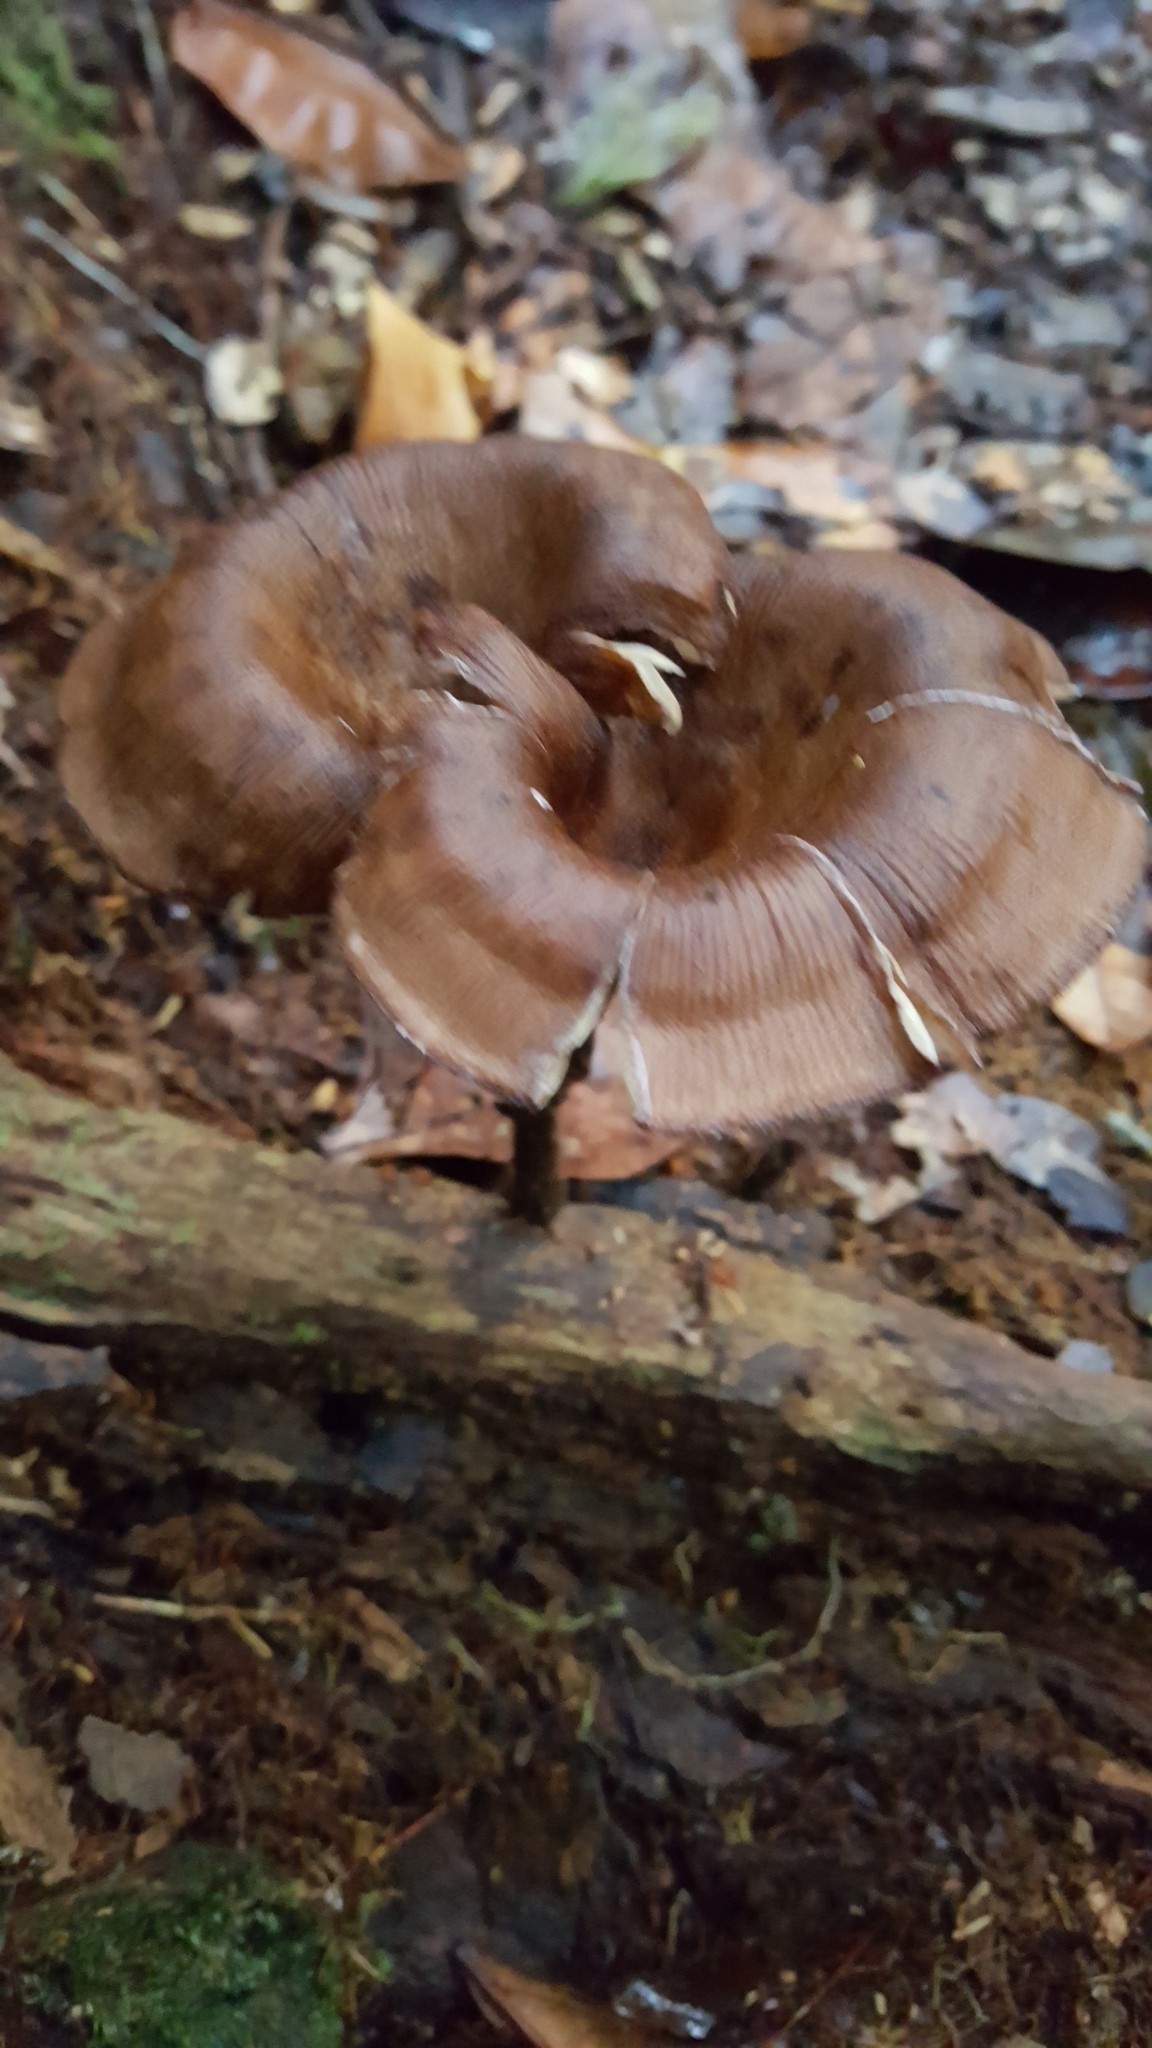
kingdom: Fungi
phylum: Basidiomycota
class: Agaricomycetes
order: Polyporales
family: Polyporaceae
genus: Lentinus
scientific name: Lentinus velutinus
